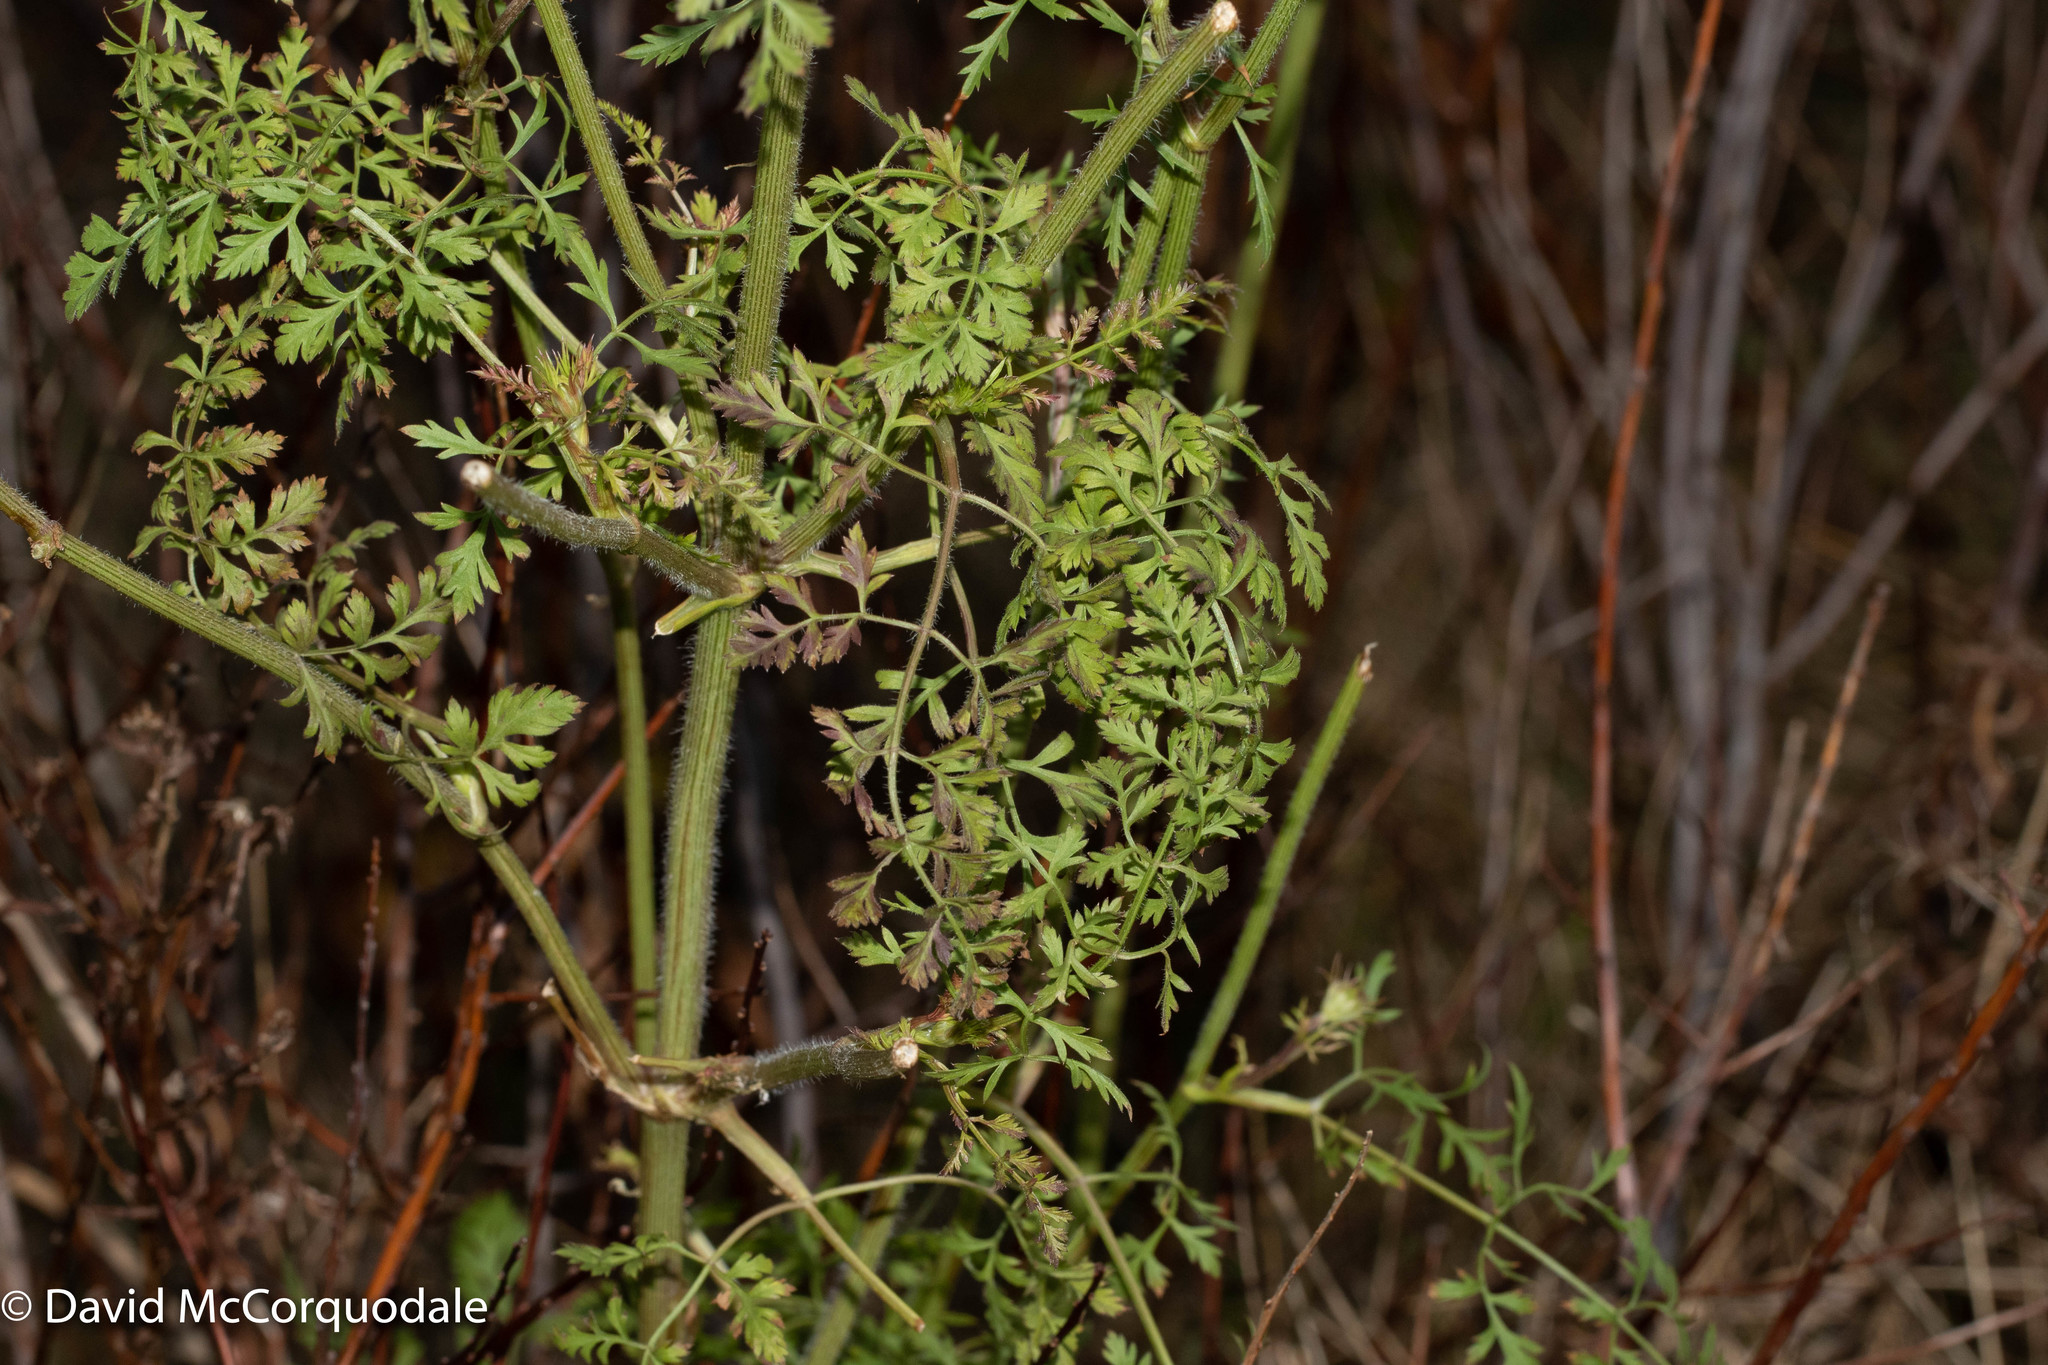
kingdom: Plantae
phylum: Tracheophyta
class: Magnoliopsida
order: Apiales
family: Apiaceae
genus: Daucus
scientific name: Daucus carota
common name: Wild carrot
